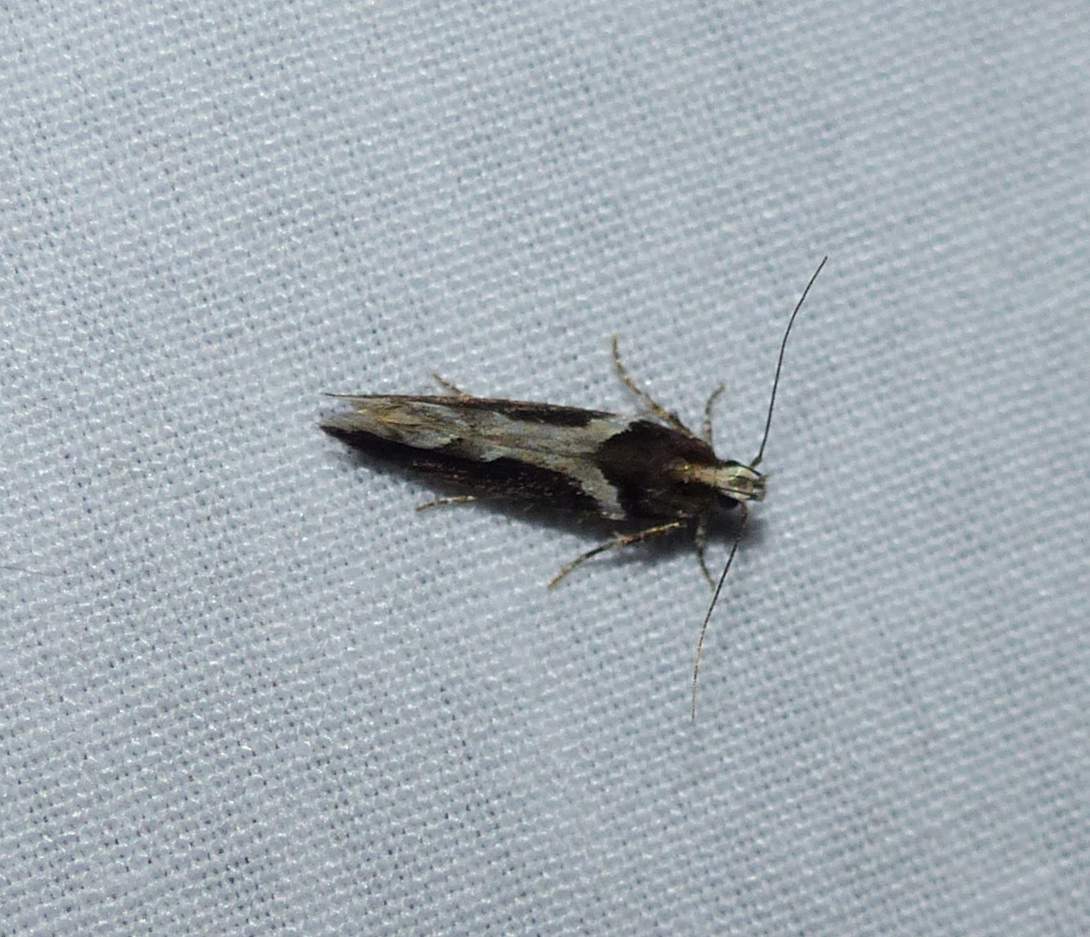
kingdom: Animalia
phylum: Arthropoda
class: Insecta
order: Lepidoptera
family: Gelechiidae
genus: Telphusa
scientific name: Telphusa longifasciella
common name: Y-backed telphusa
